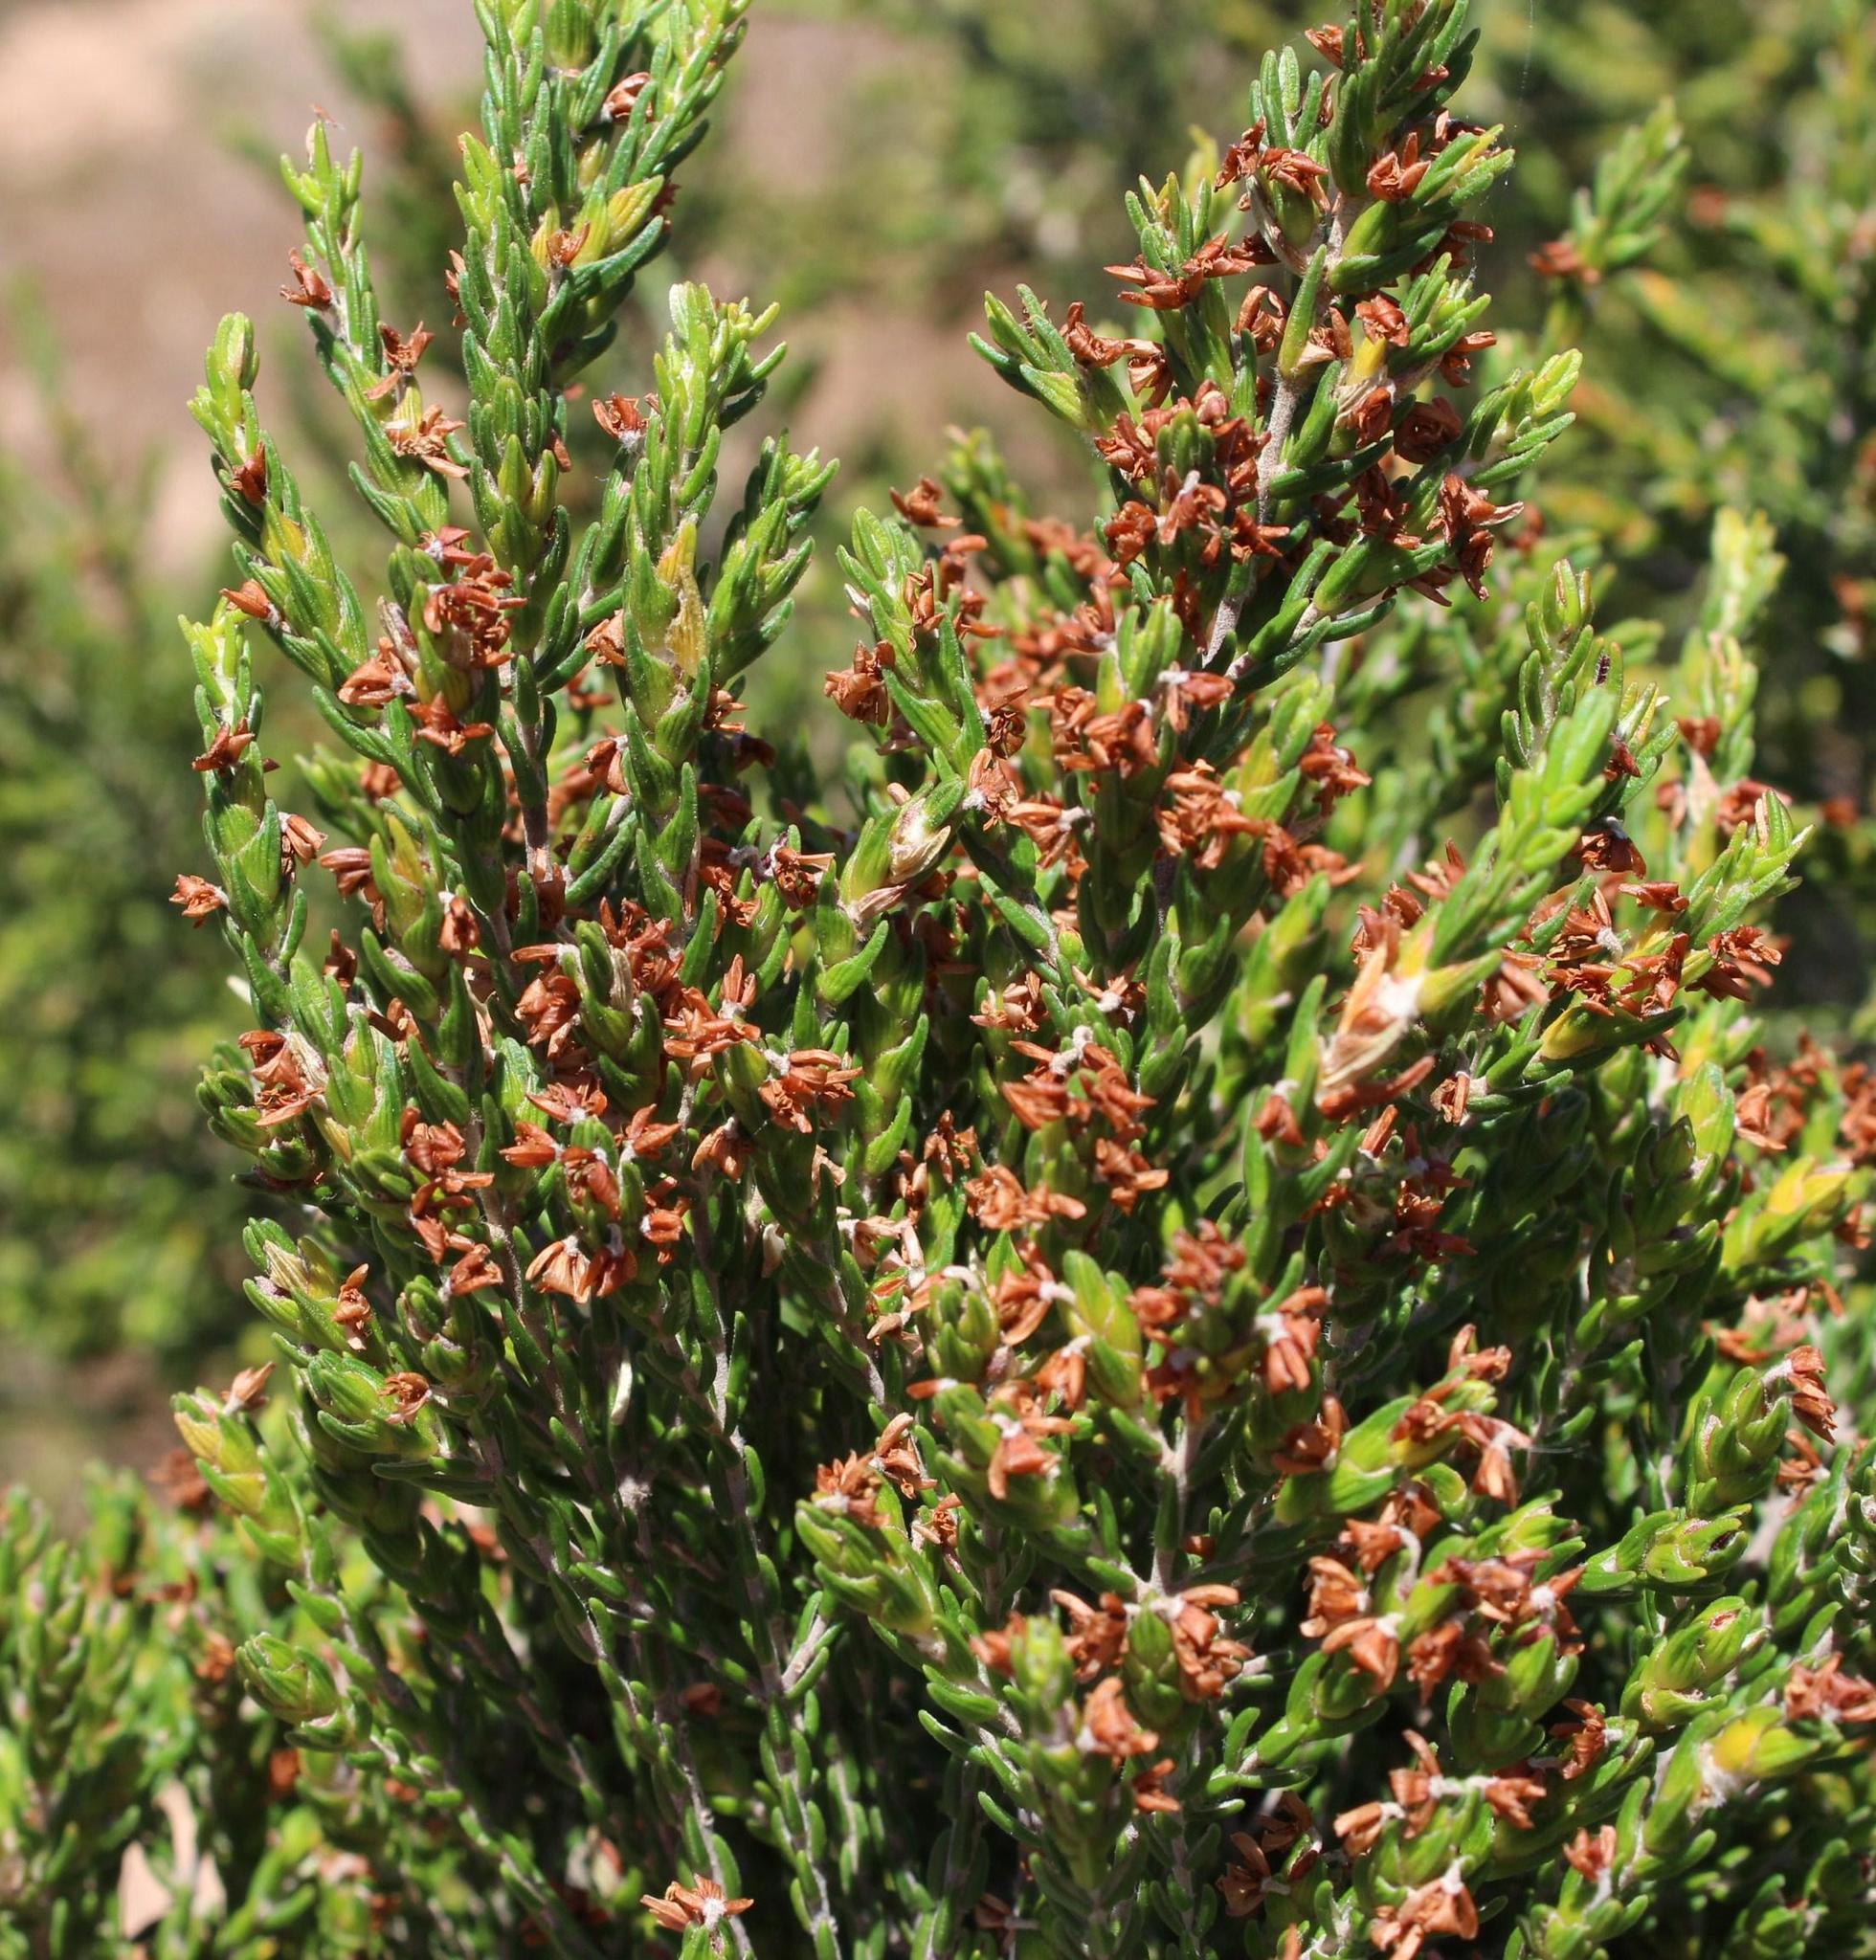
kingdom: Plantae
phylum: Tracheophyta
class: Magnoliopsida
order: Malvales
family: Thymelaeaceae
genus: Passerina
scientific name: Passerina corymbosa
